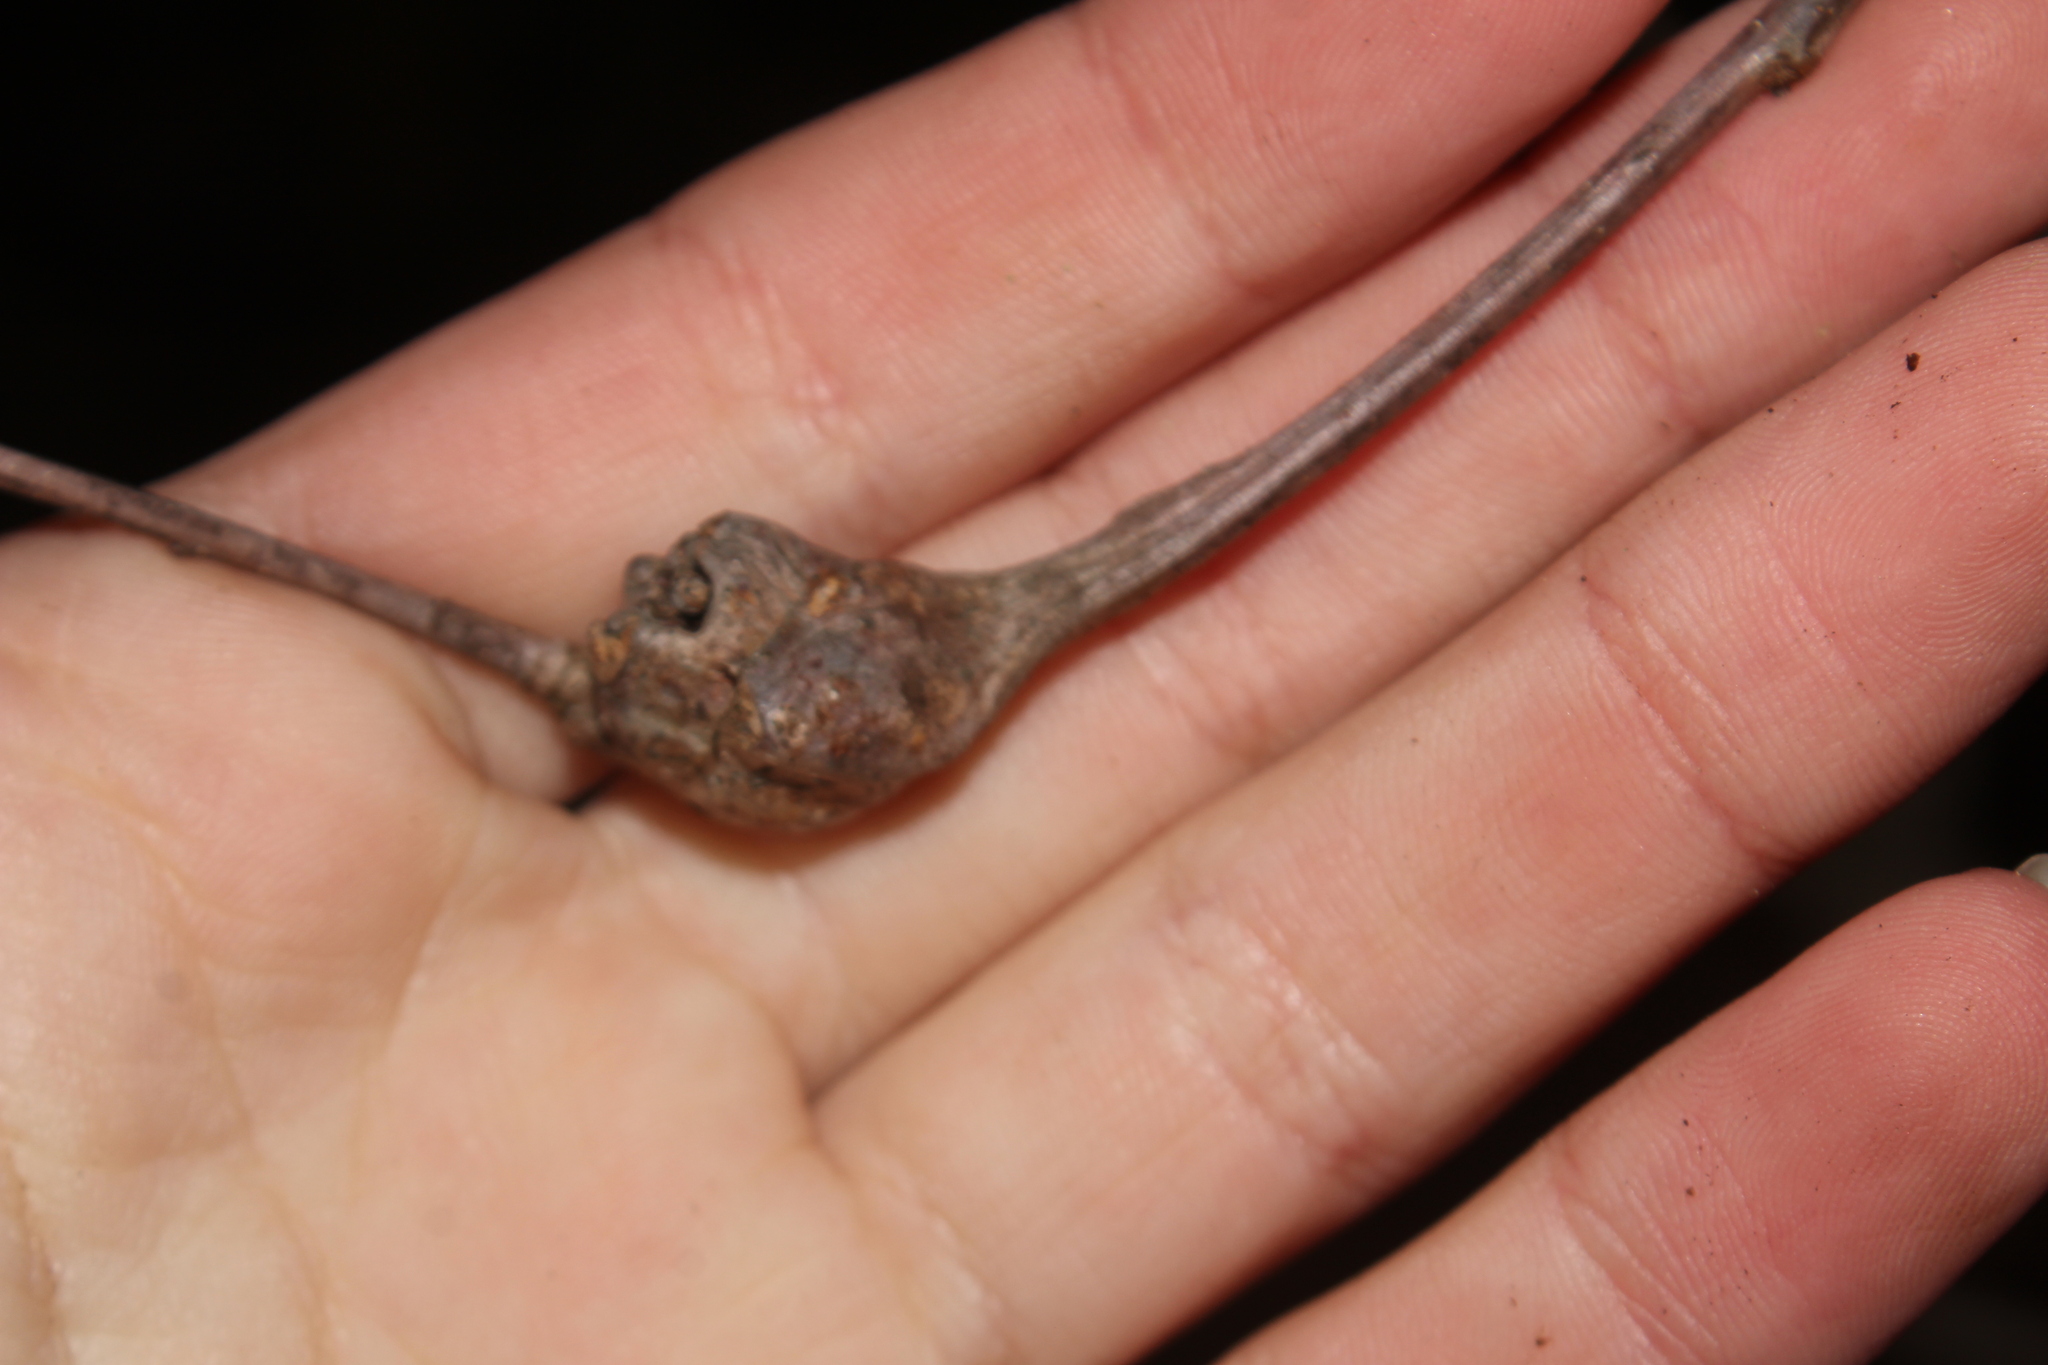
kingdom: Animalia
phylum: Arthropoda
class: Insecta
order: Hymenoptera
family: Cynipidae
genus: Callirhytis
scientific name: Callirhytis clavula
